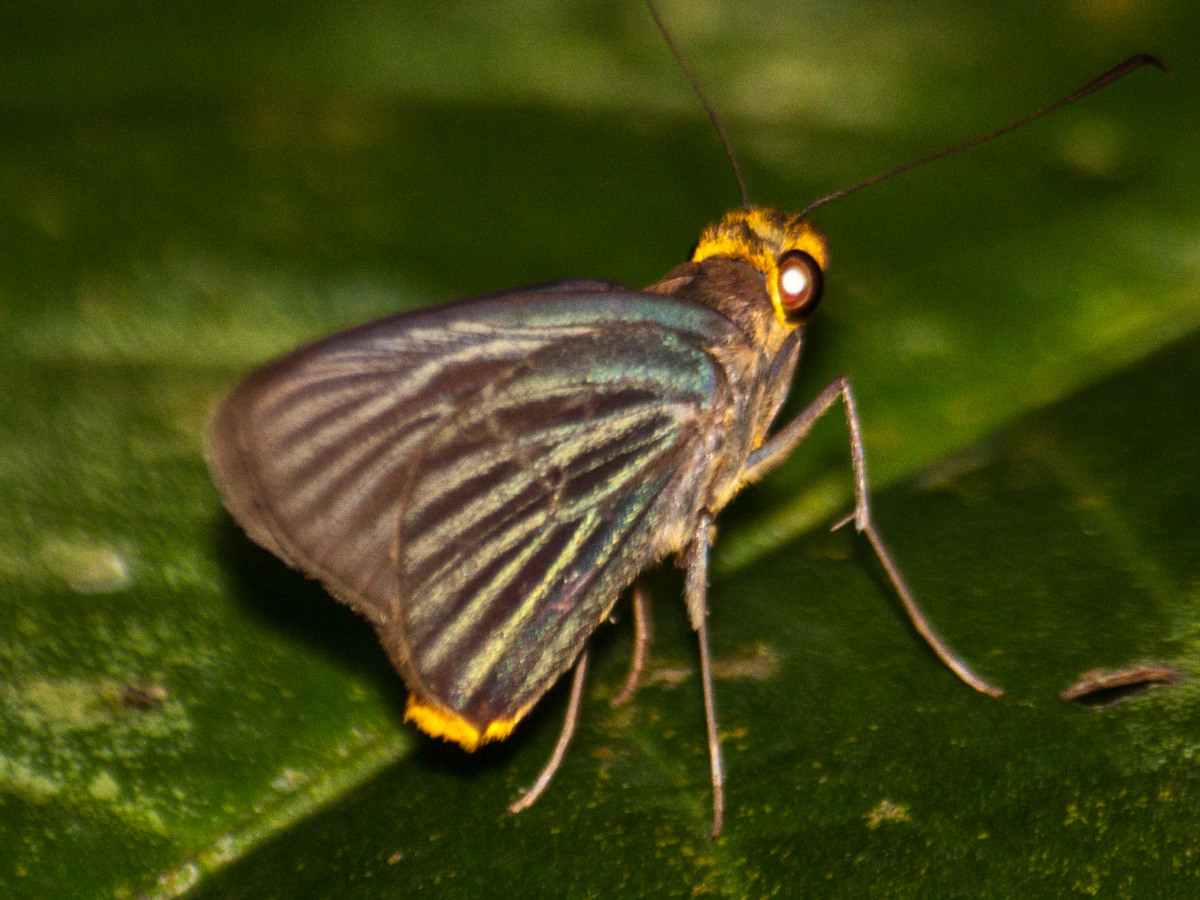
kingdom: Animalia
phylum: Arthropoda
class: Insecta
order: Lepidoptera
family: Hesperiidae
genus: Pirdana
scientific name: Pirdana hyela
